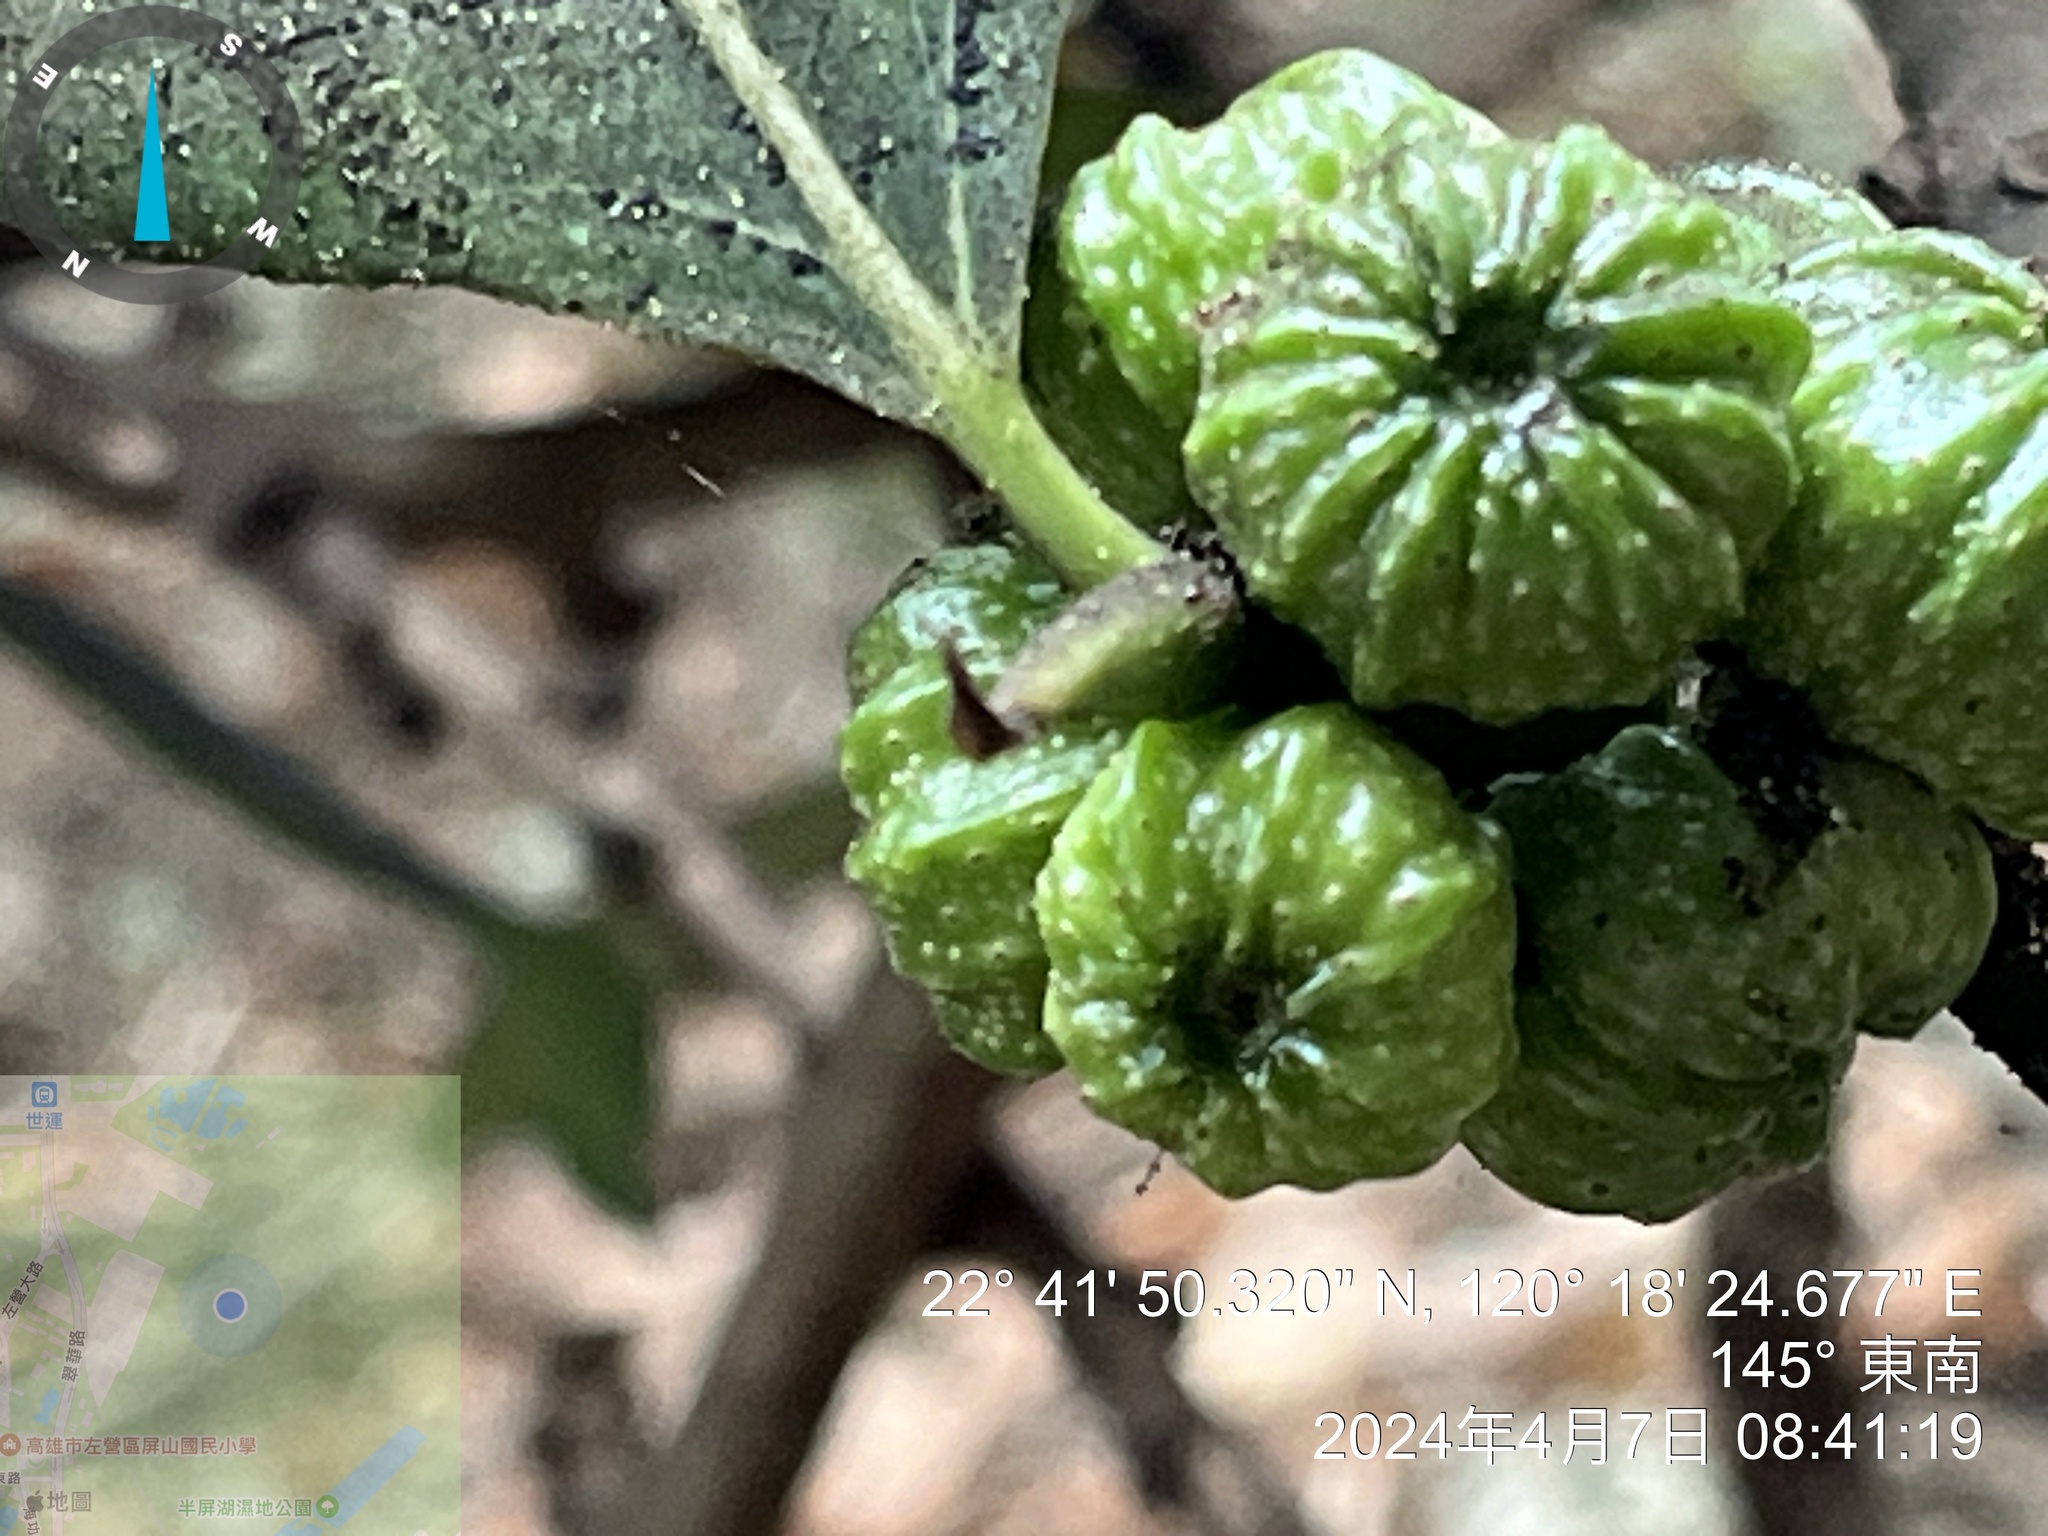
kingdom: Plantae
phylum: Tracheophyta
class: Magnoliopsida
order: Rosales
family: Moraceae
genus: Ficus
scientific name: Ficus septica
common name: Septic fig
